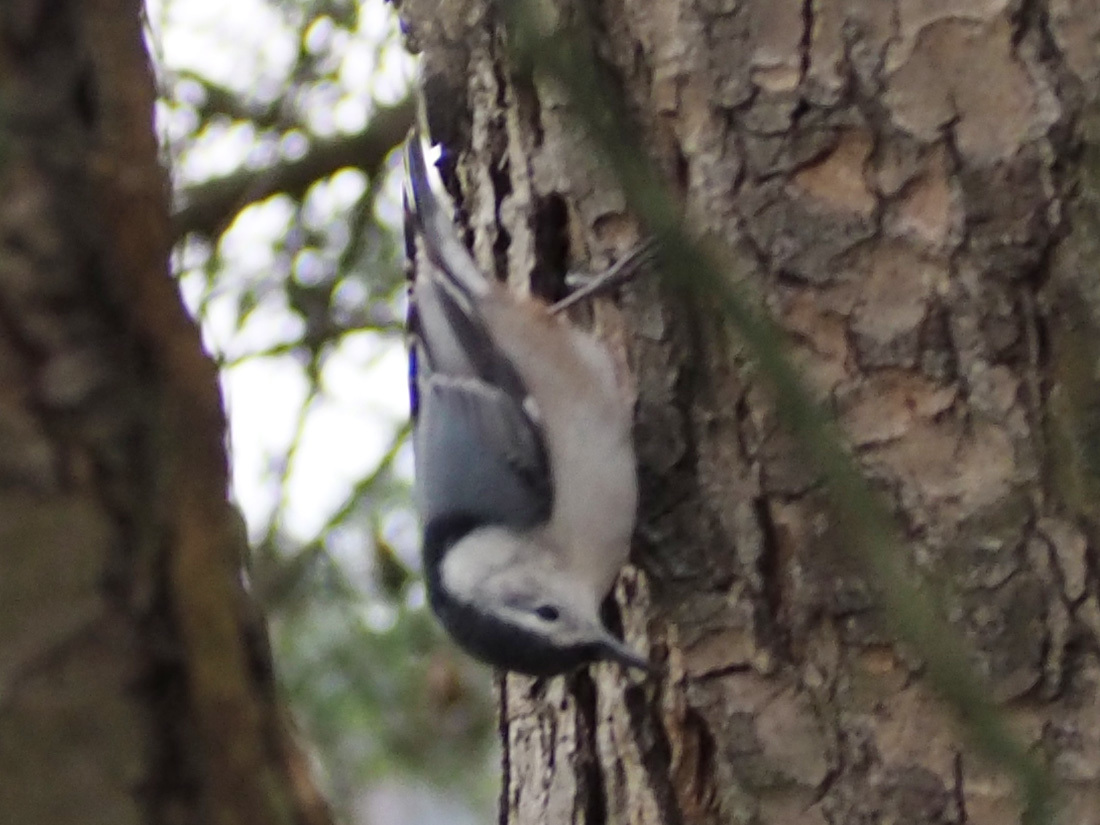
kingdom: Animalia
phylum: Chordata
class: Aves
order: Passeriformes
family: Sittidae
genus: Sitta
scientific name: Sitta carolinensis
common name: White-breasted nuthatch
